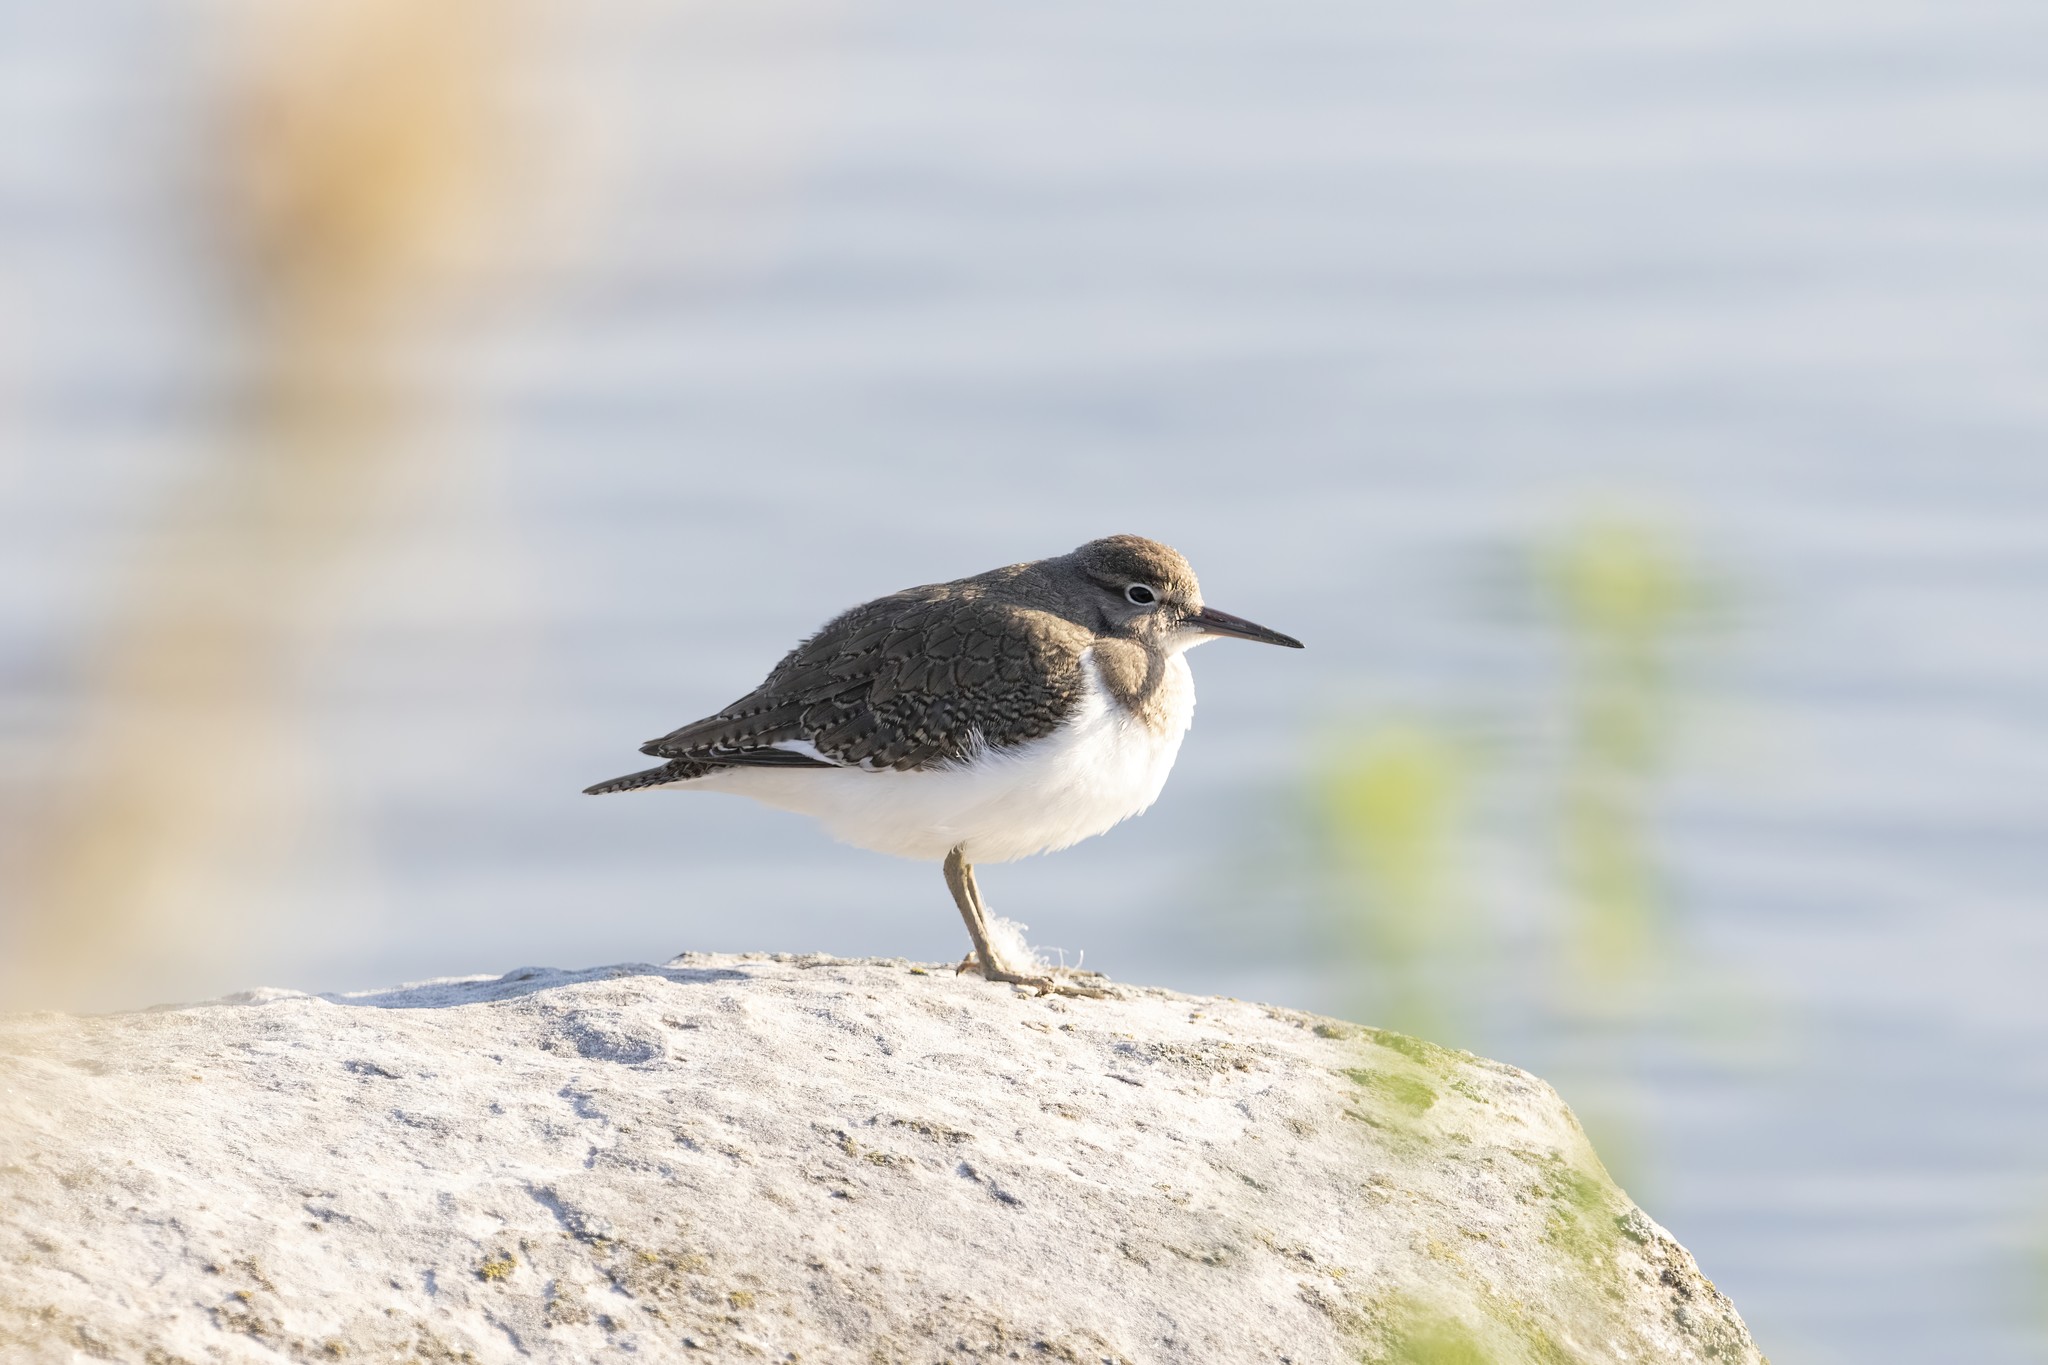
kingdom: Animalia
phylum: Chordata
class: Aves
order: Charadriiformes
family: Scolopacidae
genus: Actitis
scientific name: Actitis hypoleucos
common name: Common sandpiper
